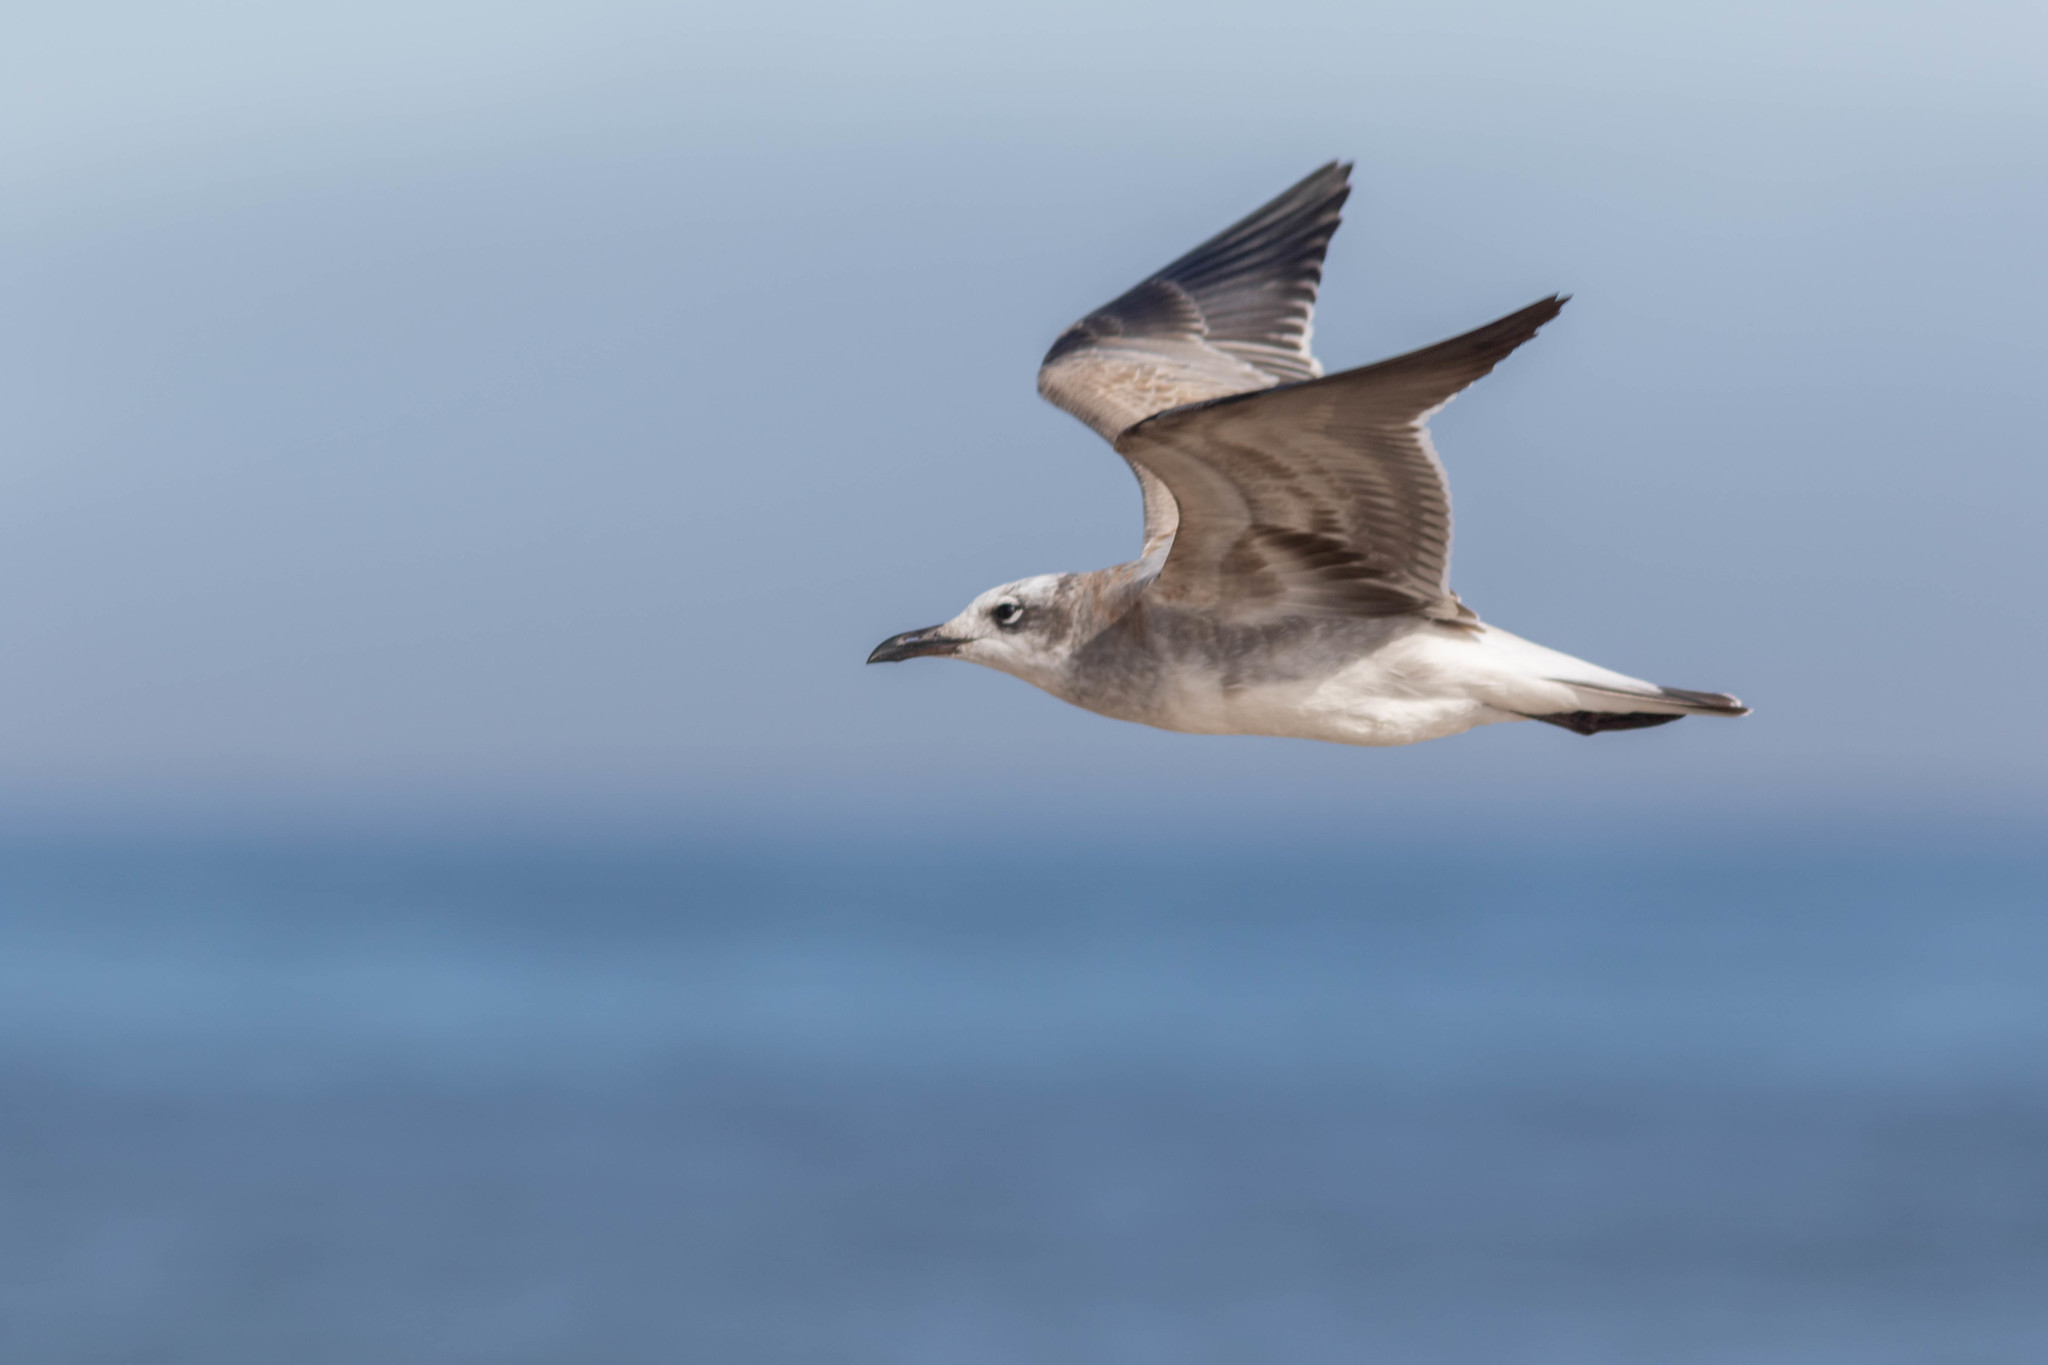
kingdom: Animalia
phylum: Chordata
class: Aves
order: Charadriiformes
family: Laridae
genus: Leucophaeus
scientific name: Leucophaeus atricilla
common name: Laughing gull
